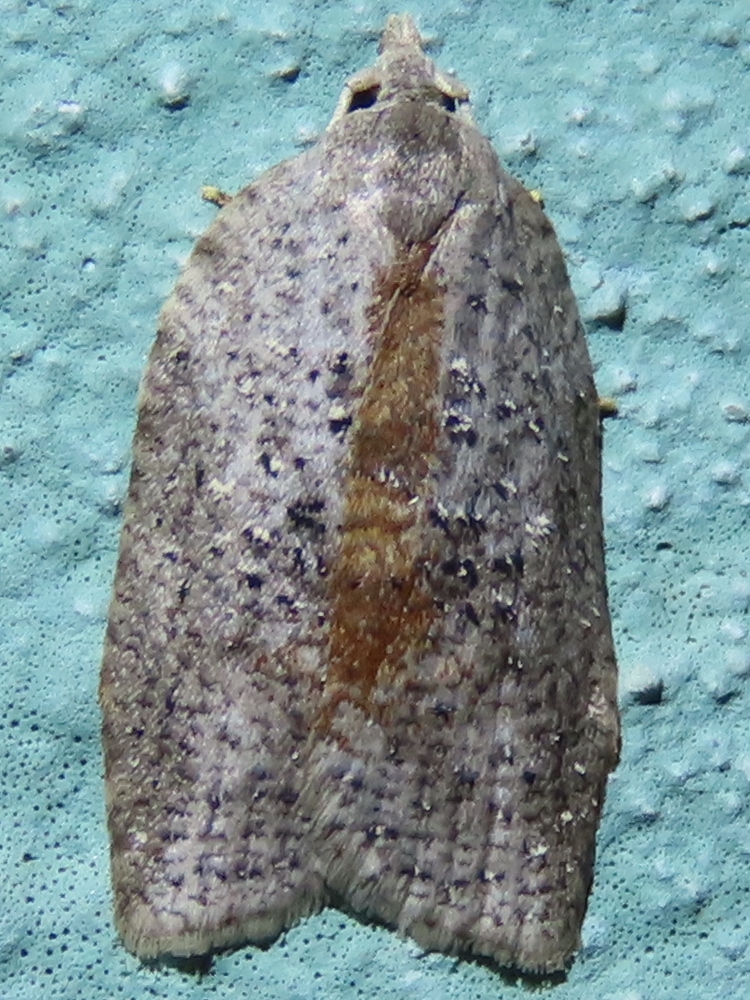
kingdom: Animalia
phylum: Arthropoda
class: Insecta
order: Lepidoptera
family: Tortricidae
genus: Amorbia
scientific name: Amorbia humerosana
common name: White-lined leafroller moth
